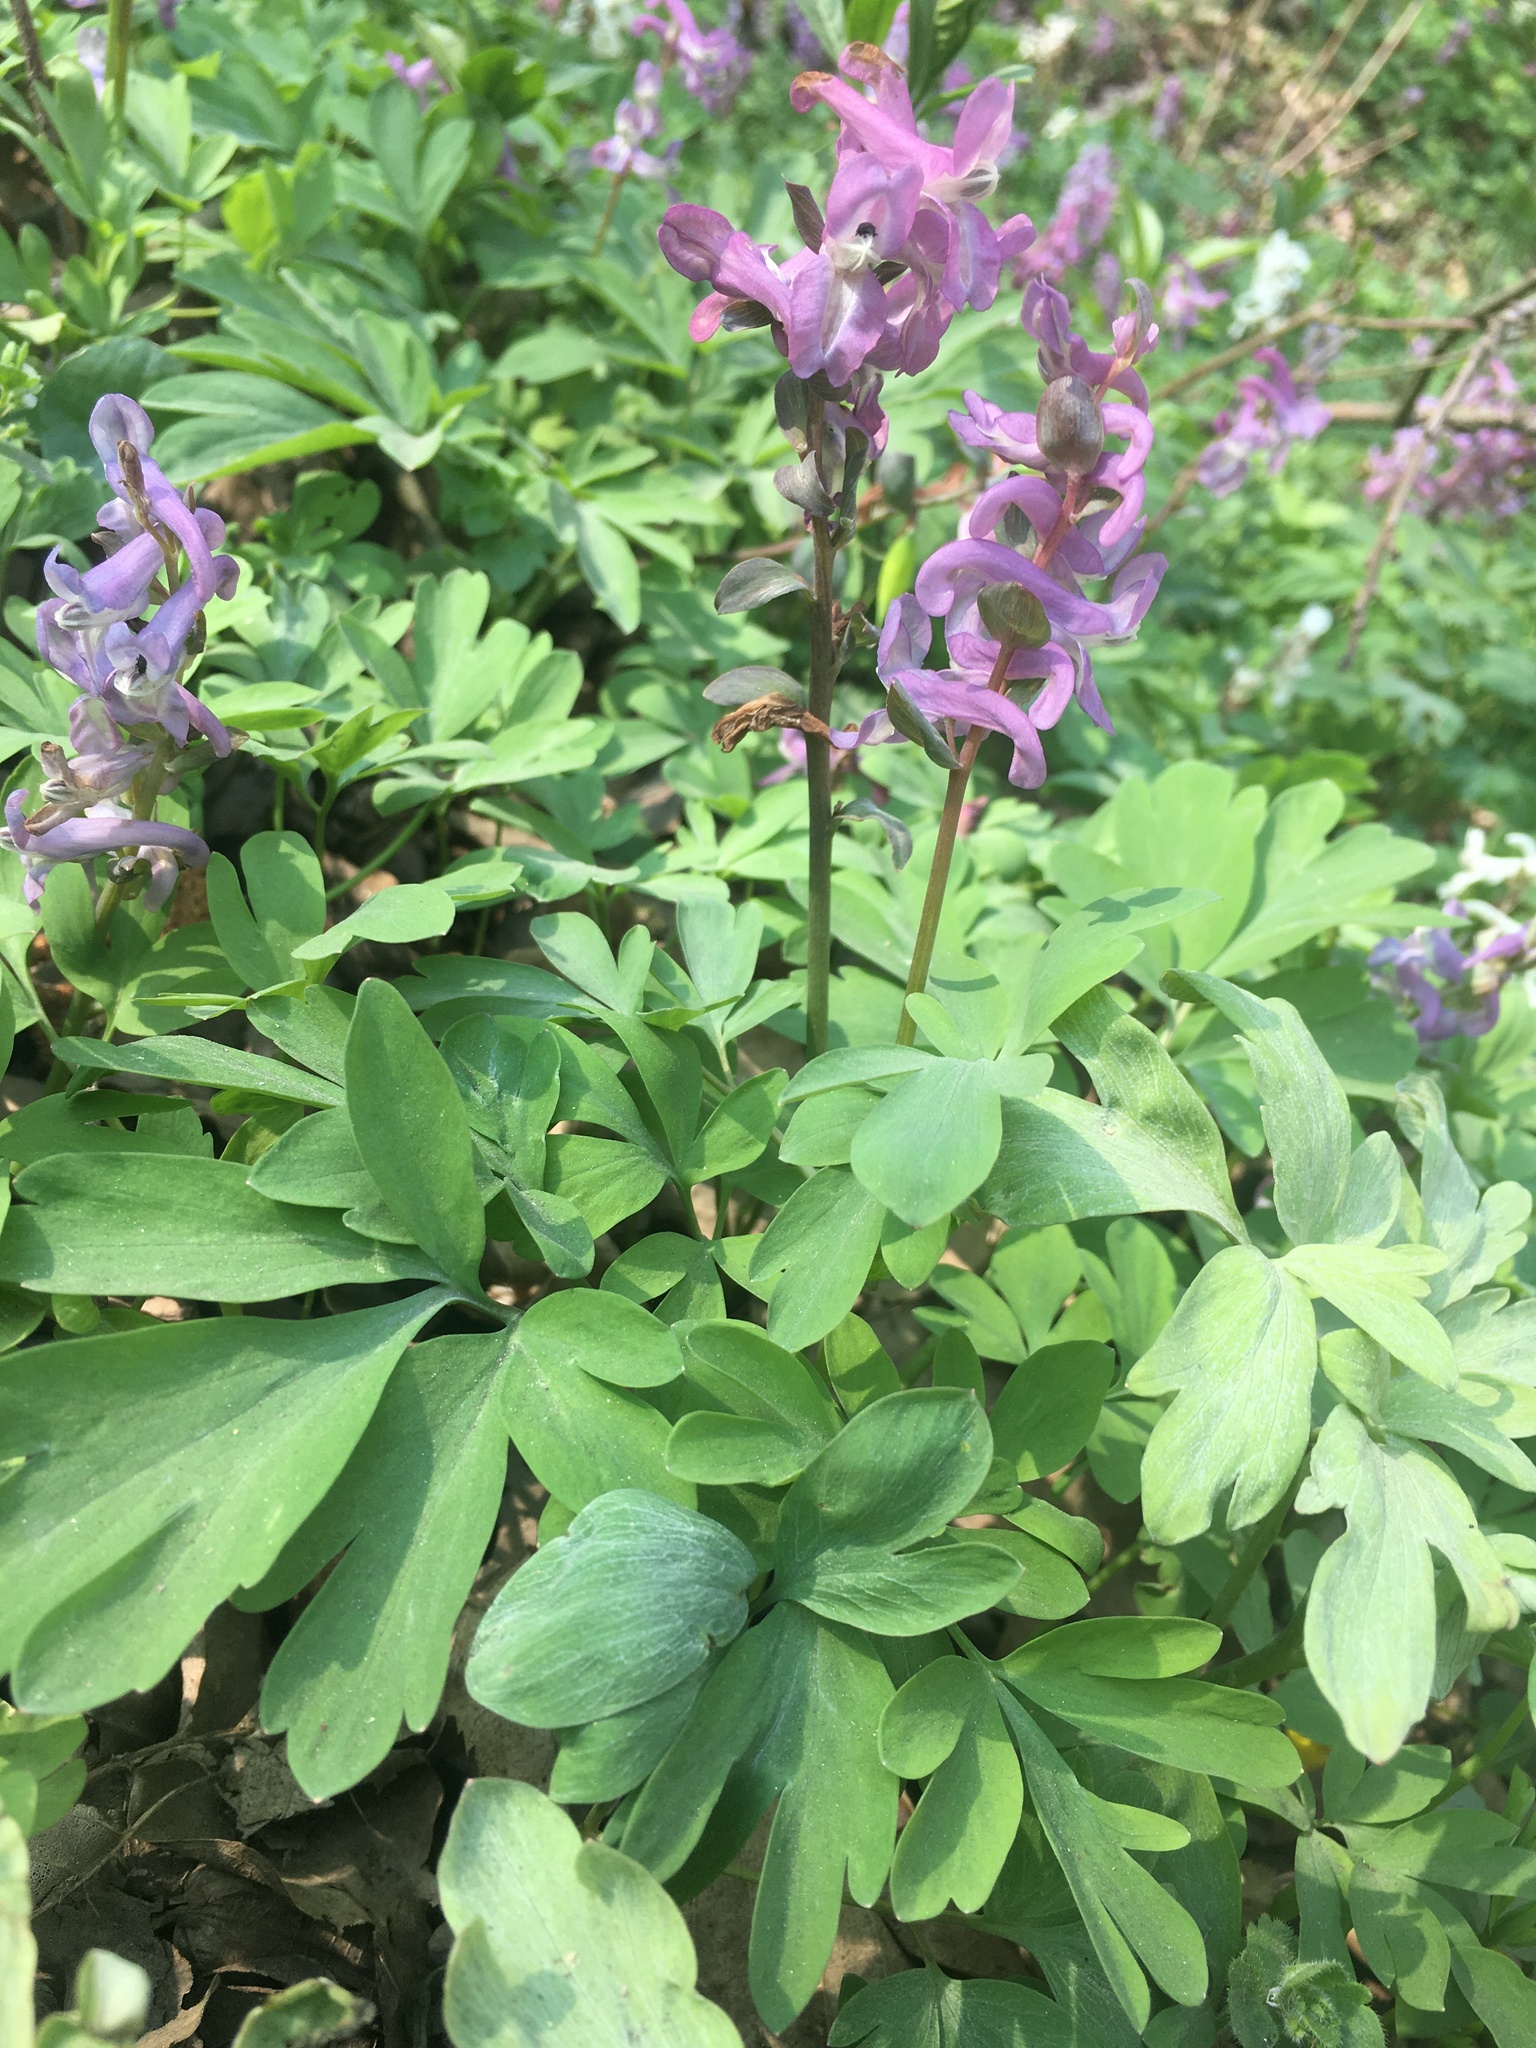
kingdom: Plantae
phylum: Tracheophyta
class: Magnoliopsida
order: Ranunculales
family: Papaveraceae
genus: Corydalis
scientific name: Corydalis cava
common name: Hollowroot
